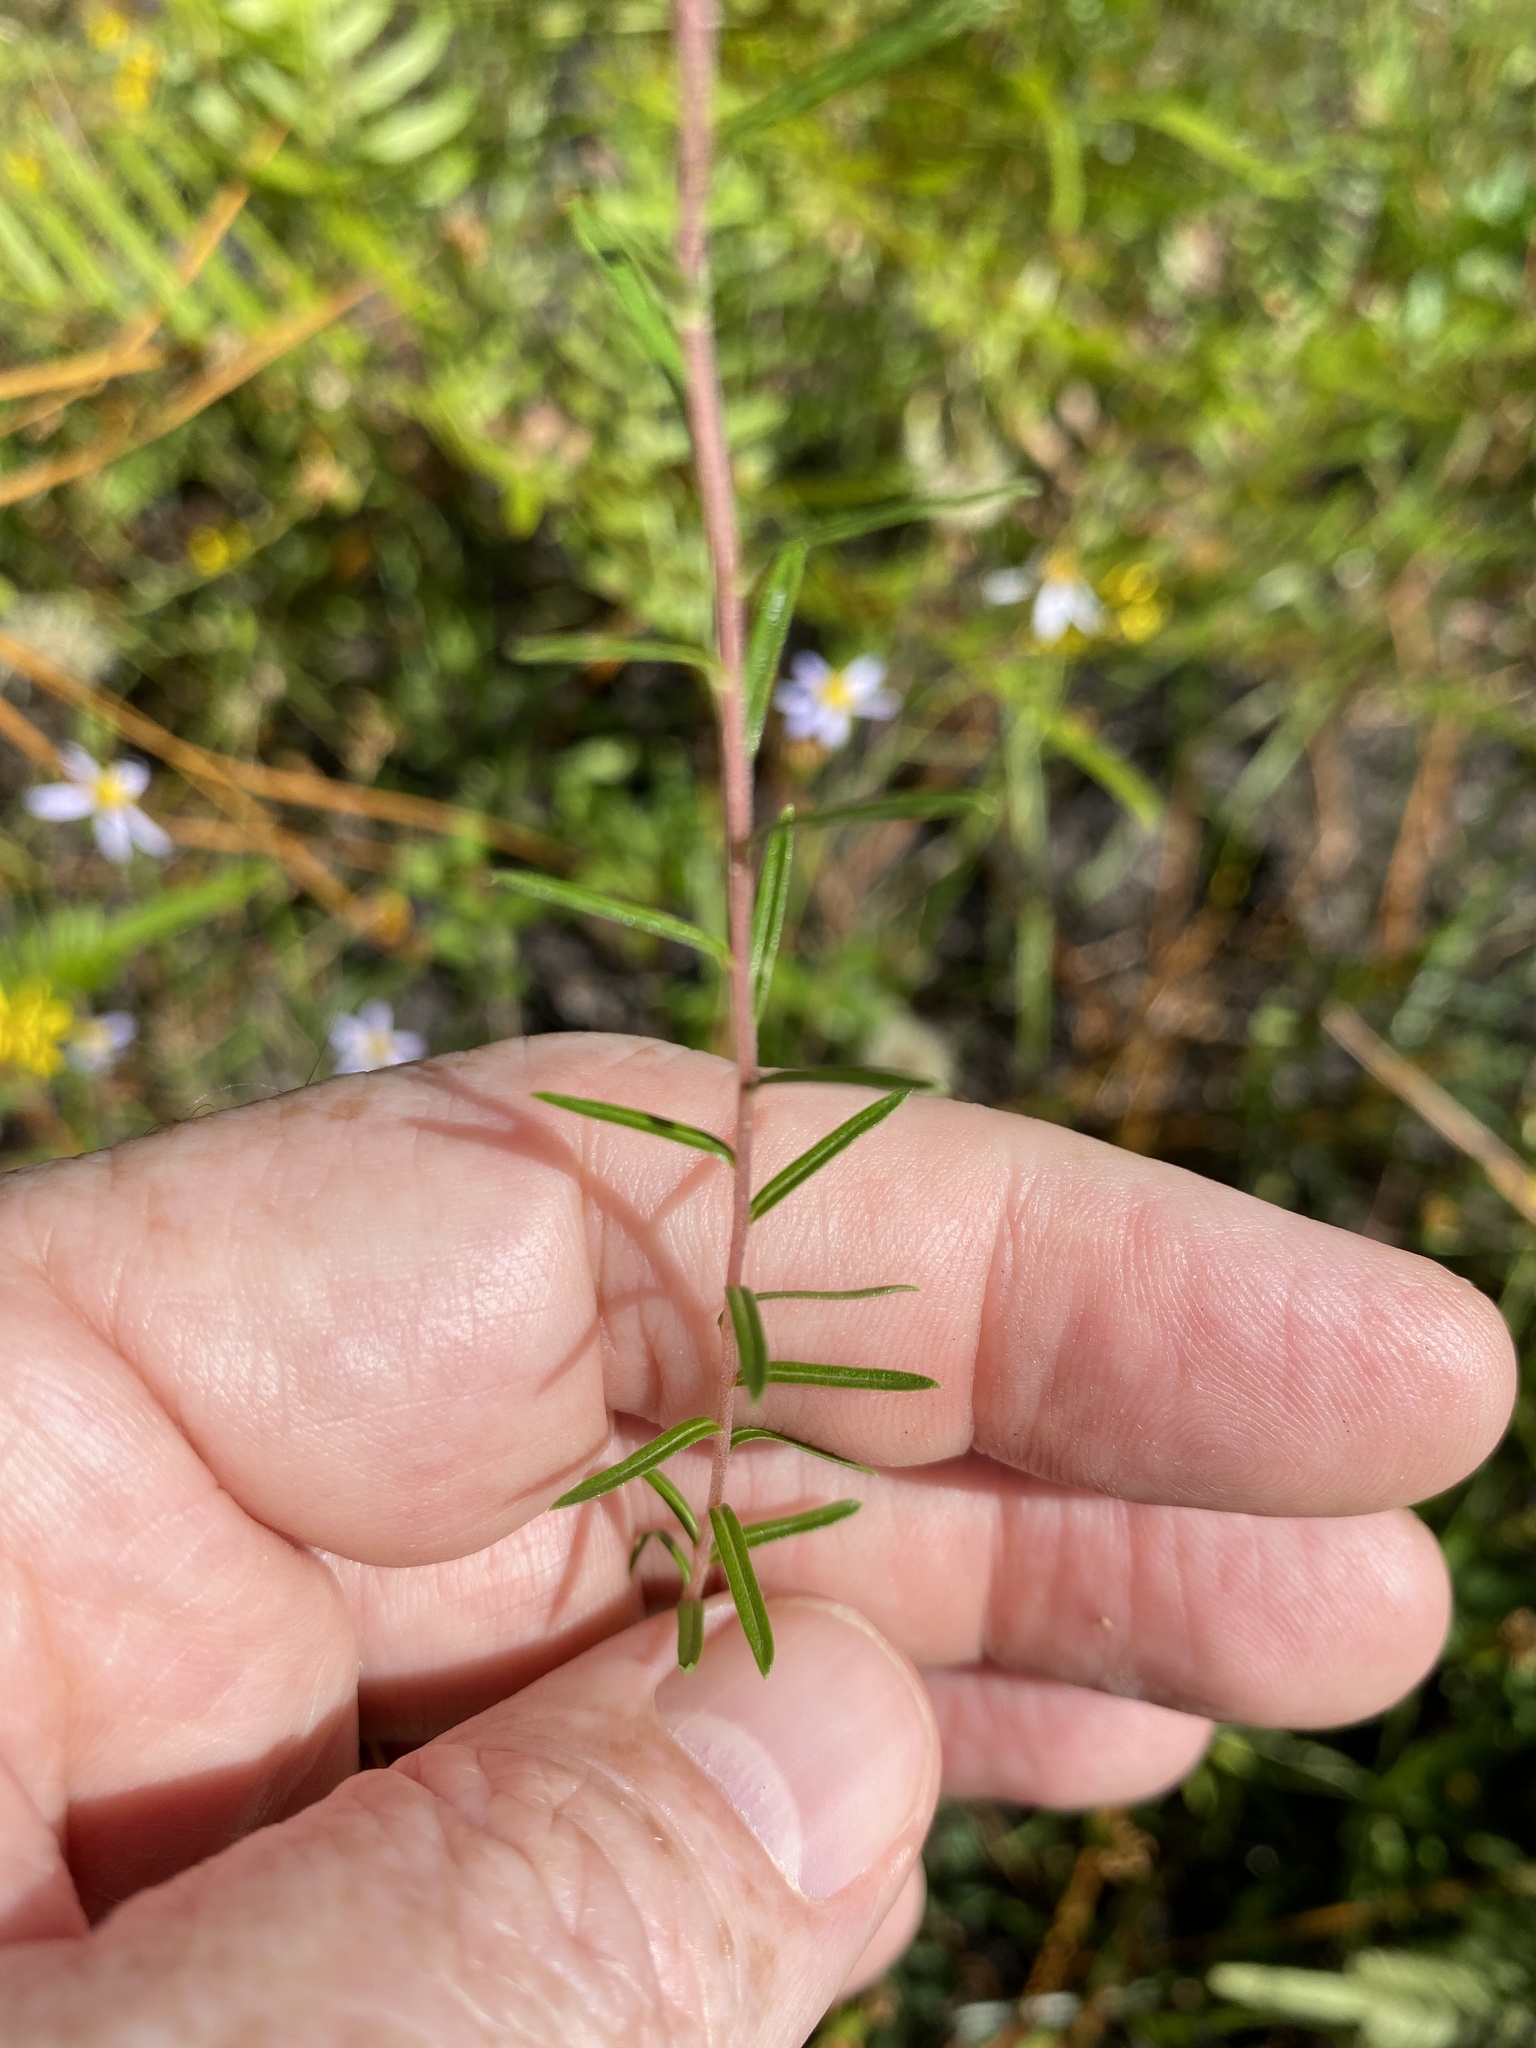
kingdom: Plantae
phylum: Tracheophyta
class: Magnoliopsida
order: Asterales
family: Asteraceae
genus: Ionactis
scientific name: Ionactis linariifolia
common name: Flax-leaf aster
